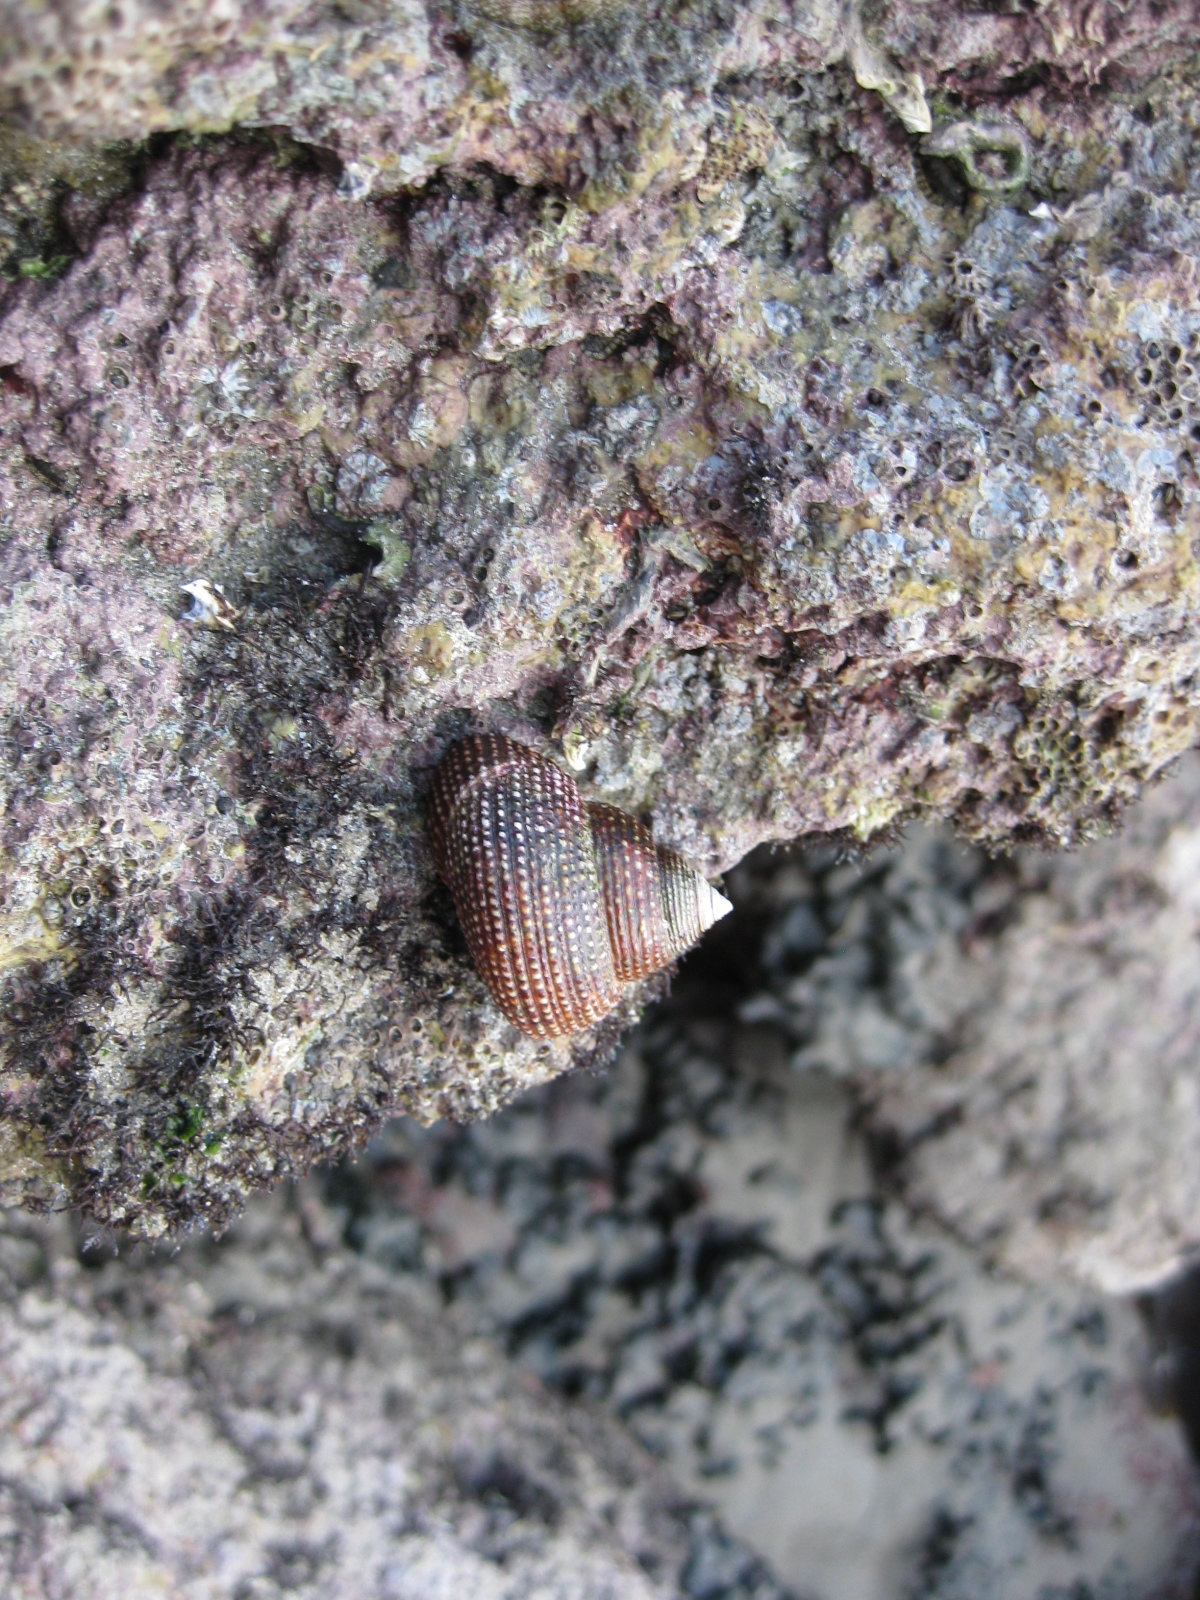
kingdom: Animalia
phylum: Mollusca
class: Gastropoda
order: Trochida
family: Calliostomatidae
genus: Maurea
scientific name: Maurea punctulata
